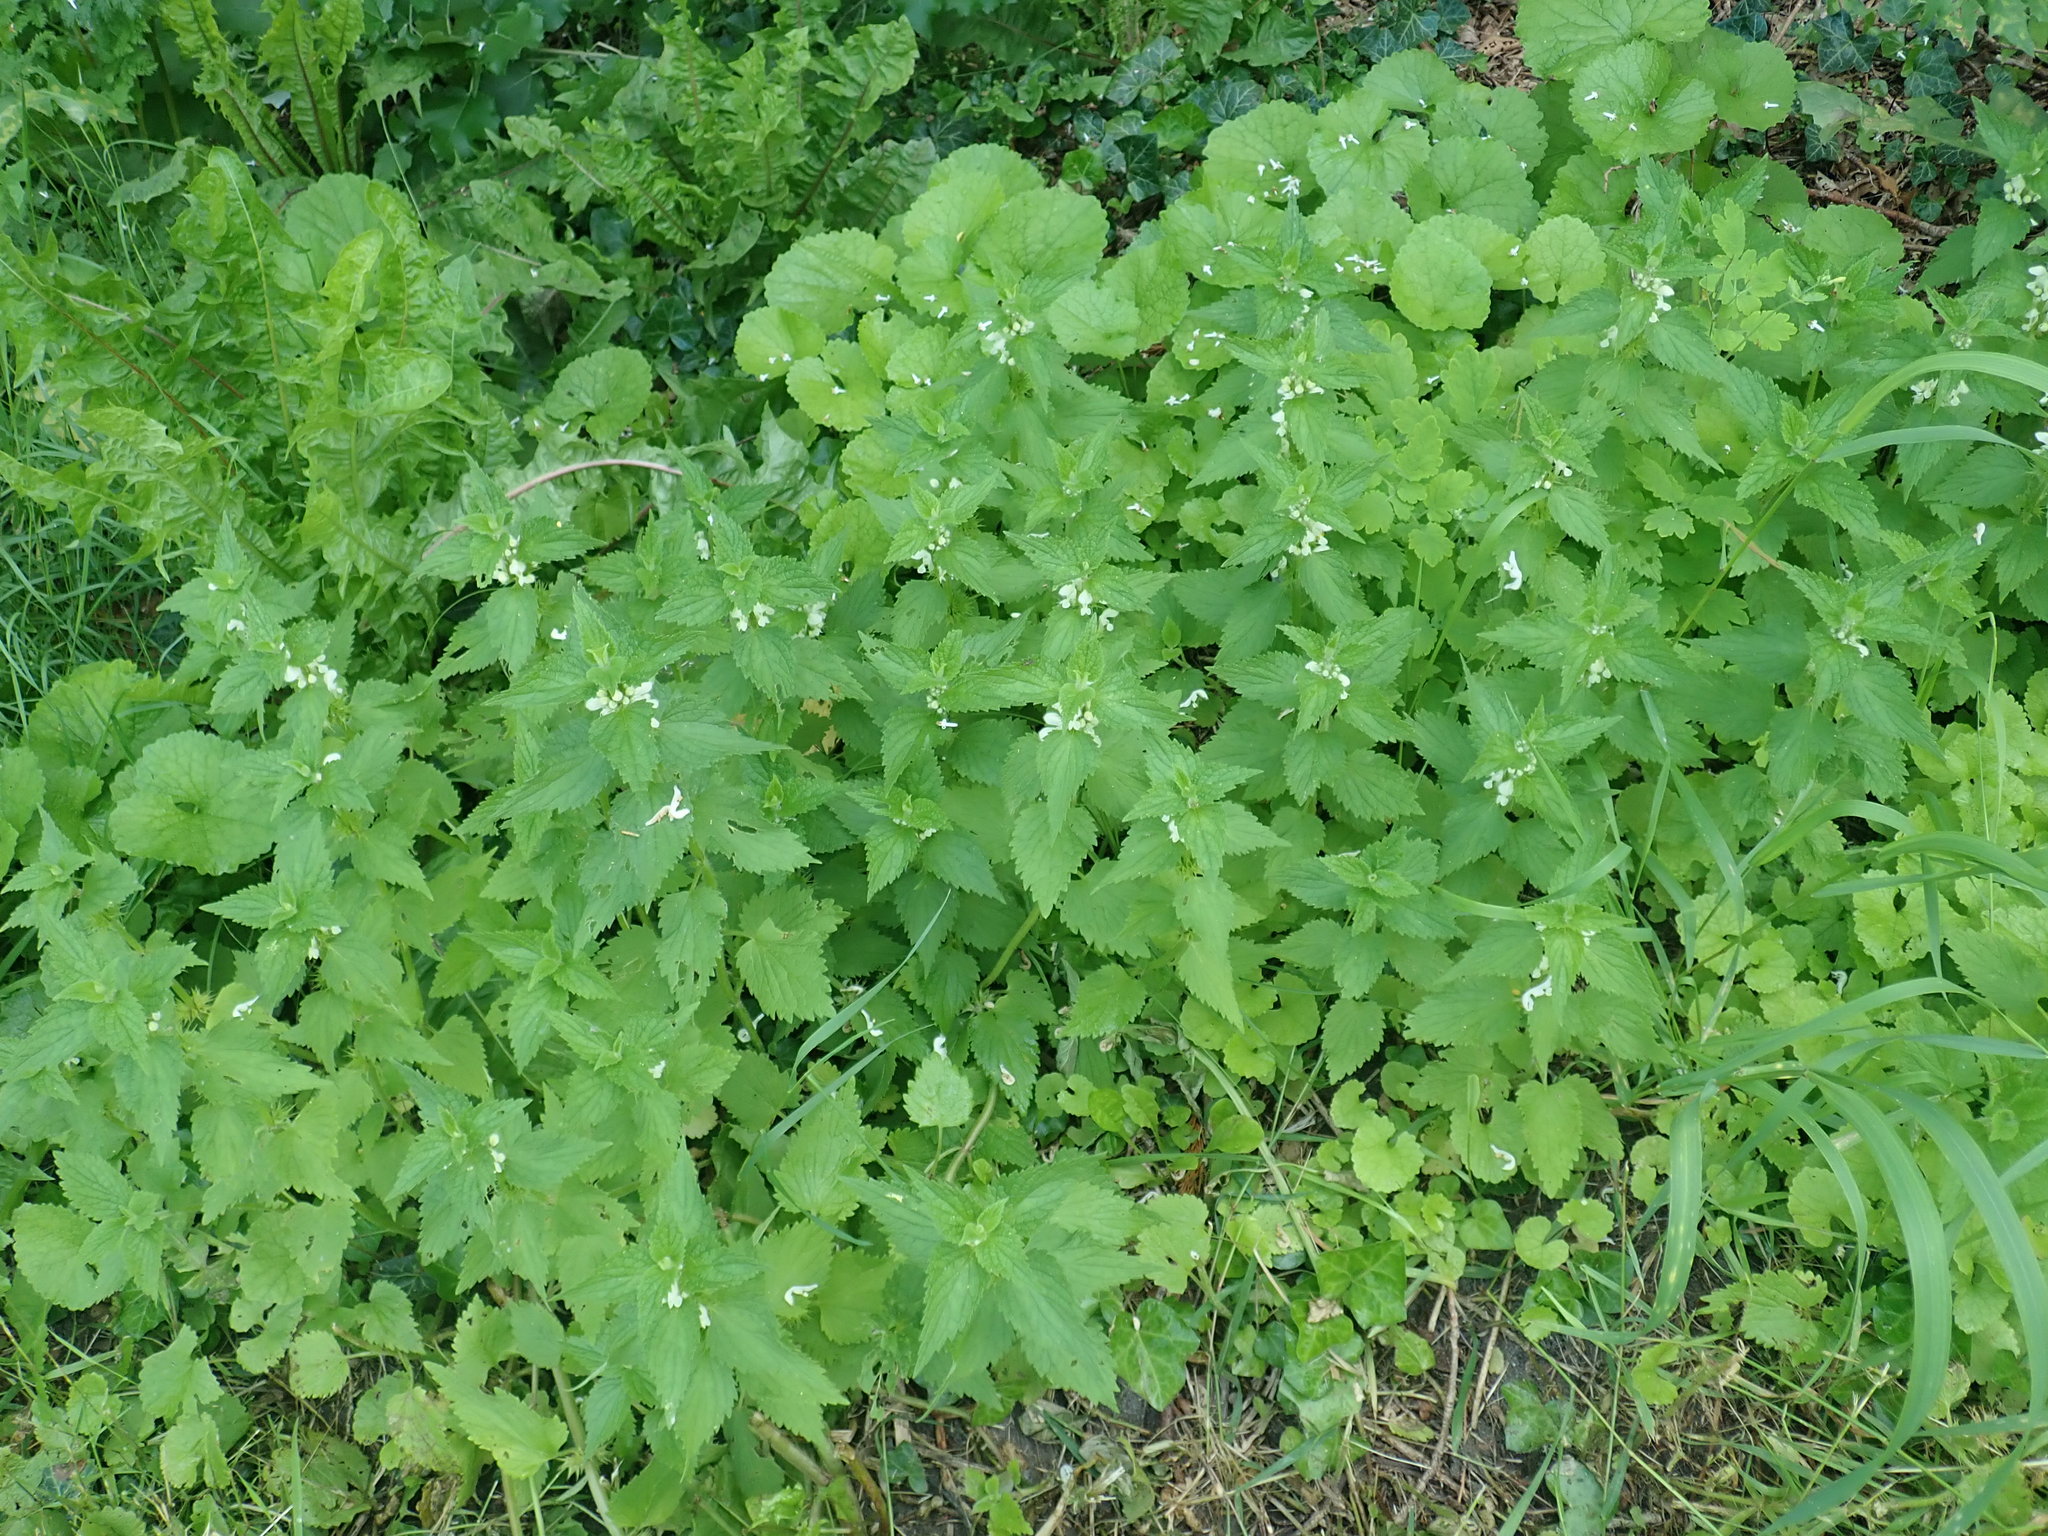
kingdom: Plantae
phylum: Tracheophyta
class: Magnoliopsida
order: Lamiales
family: Lamiaceae
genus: Lamium
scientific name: Lamium album
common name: White dead-nettle
